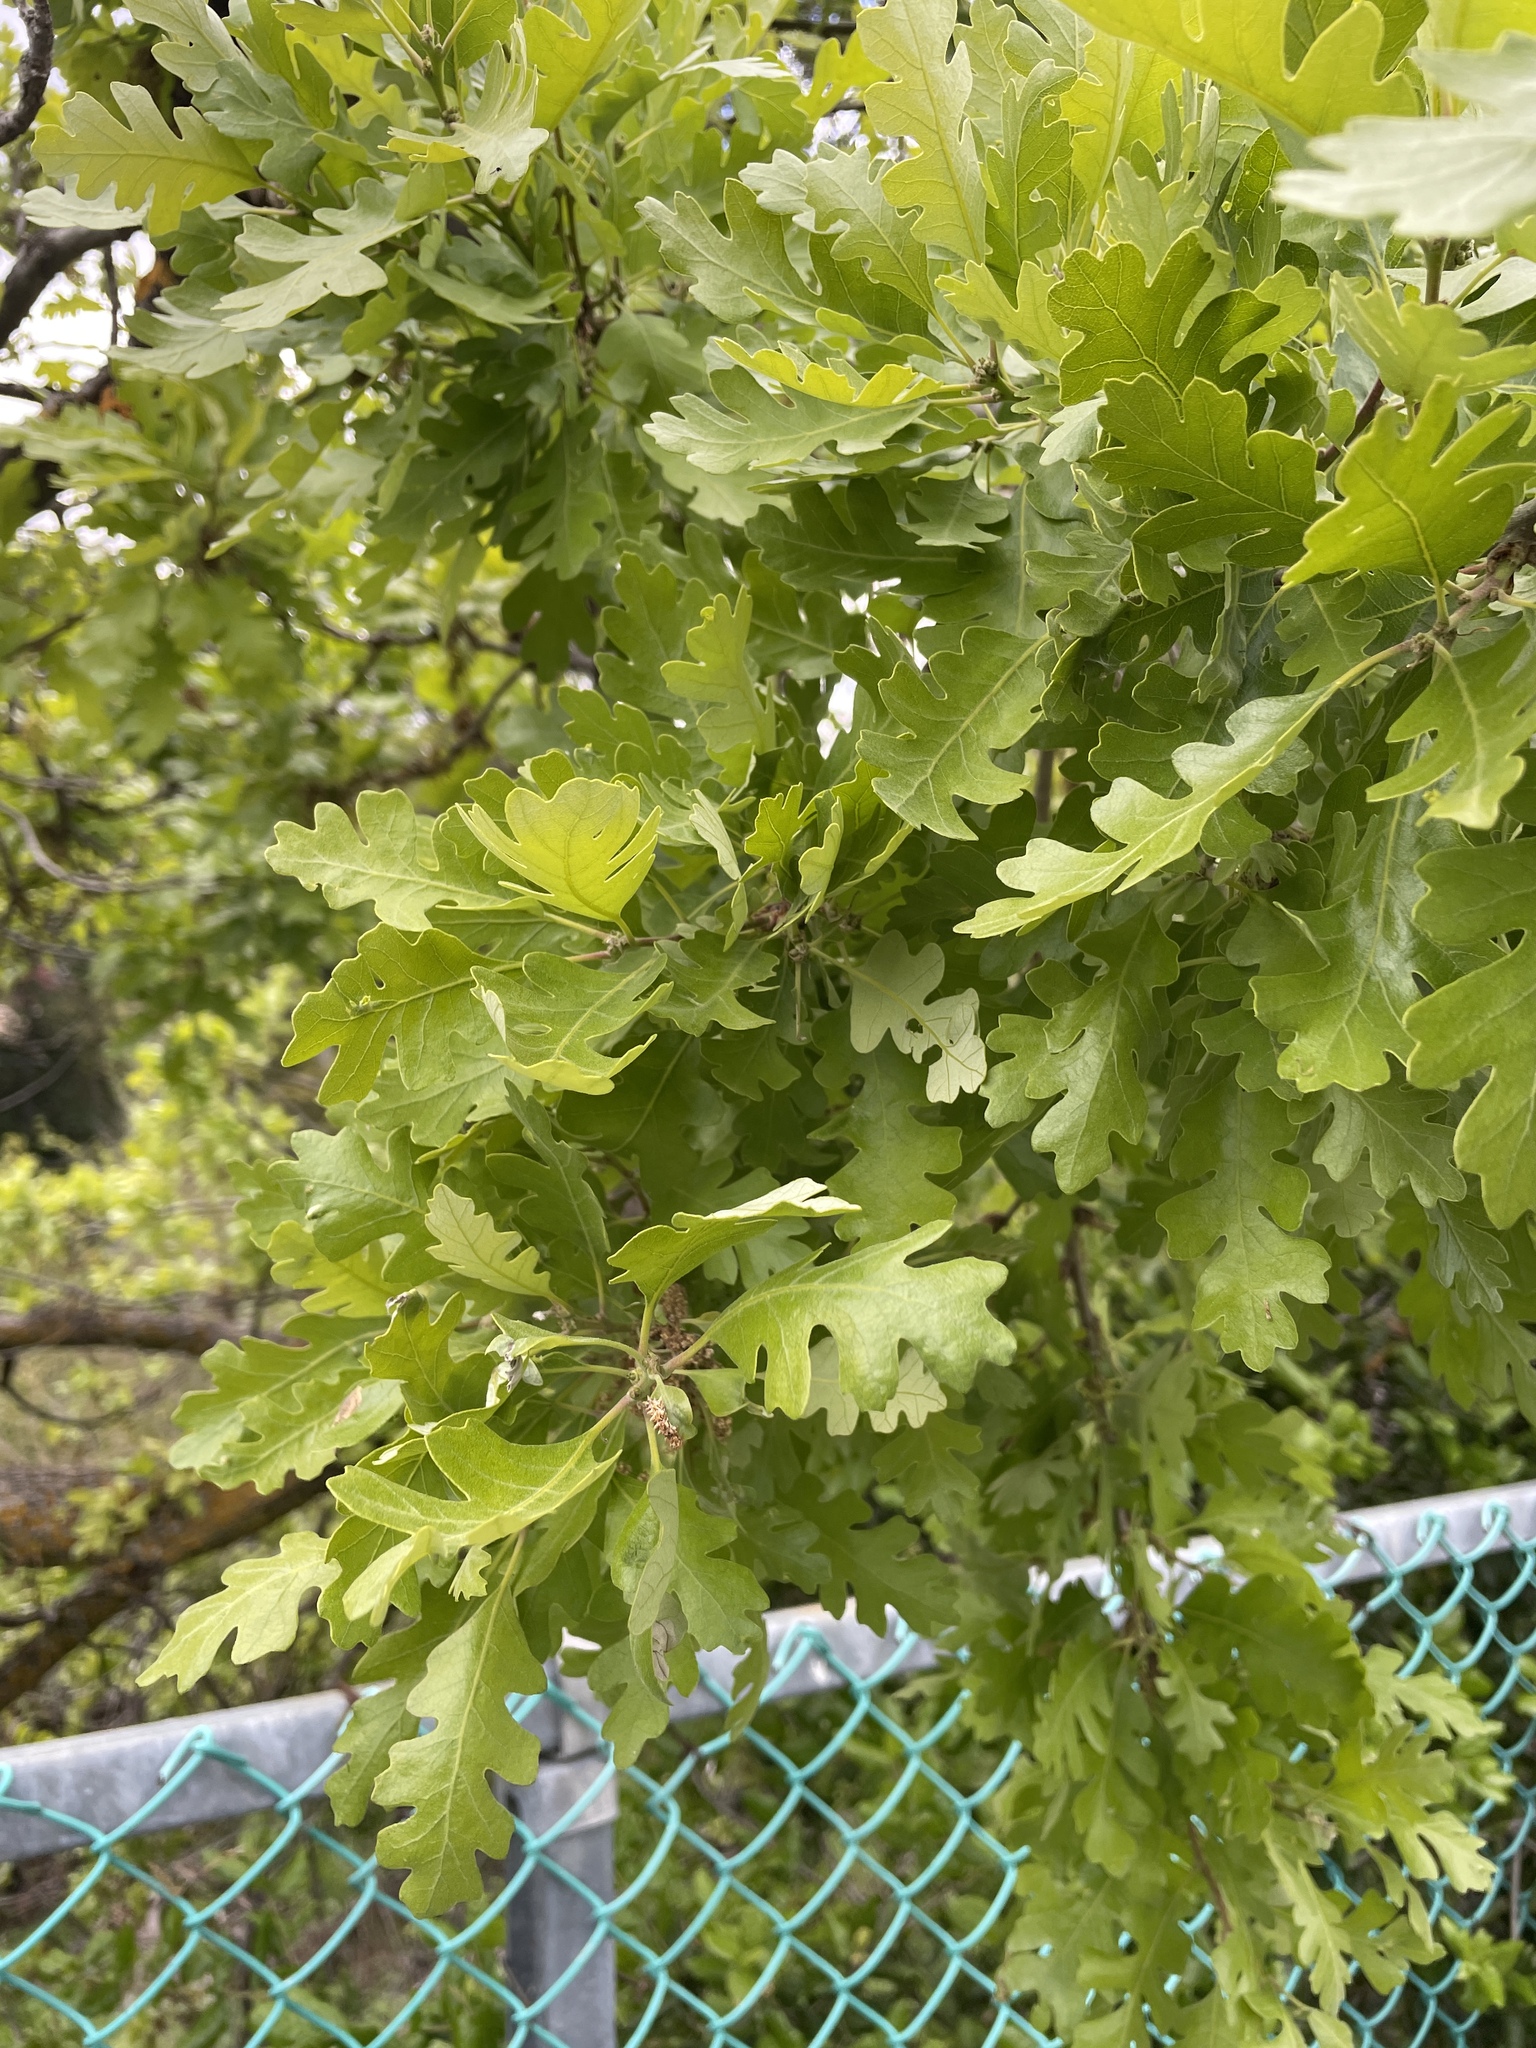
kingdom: Plantae
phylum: Tracheophyta
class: Magnoliopsida
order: Fagales
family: Fagaceae
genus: Quercus
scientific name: Quercus lobata
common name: Valley oak
